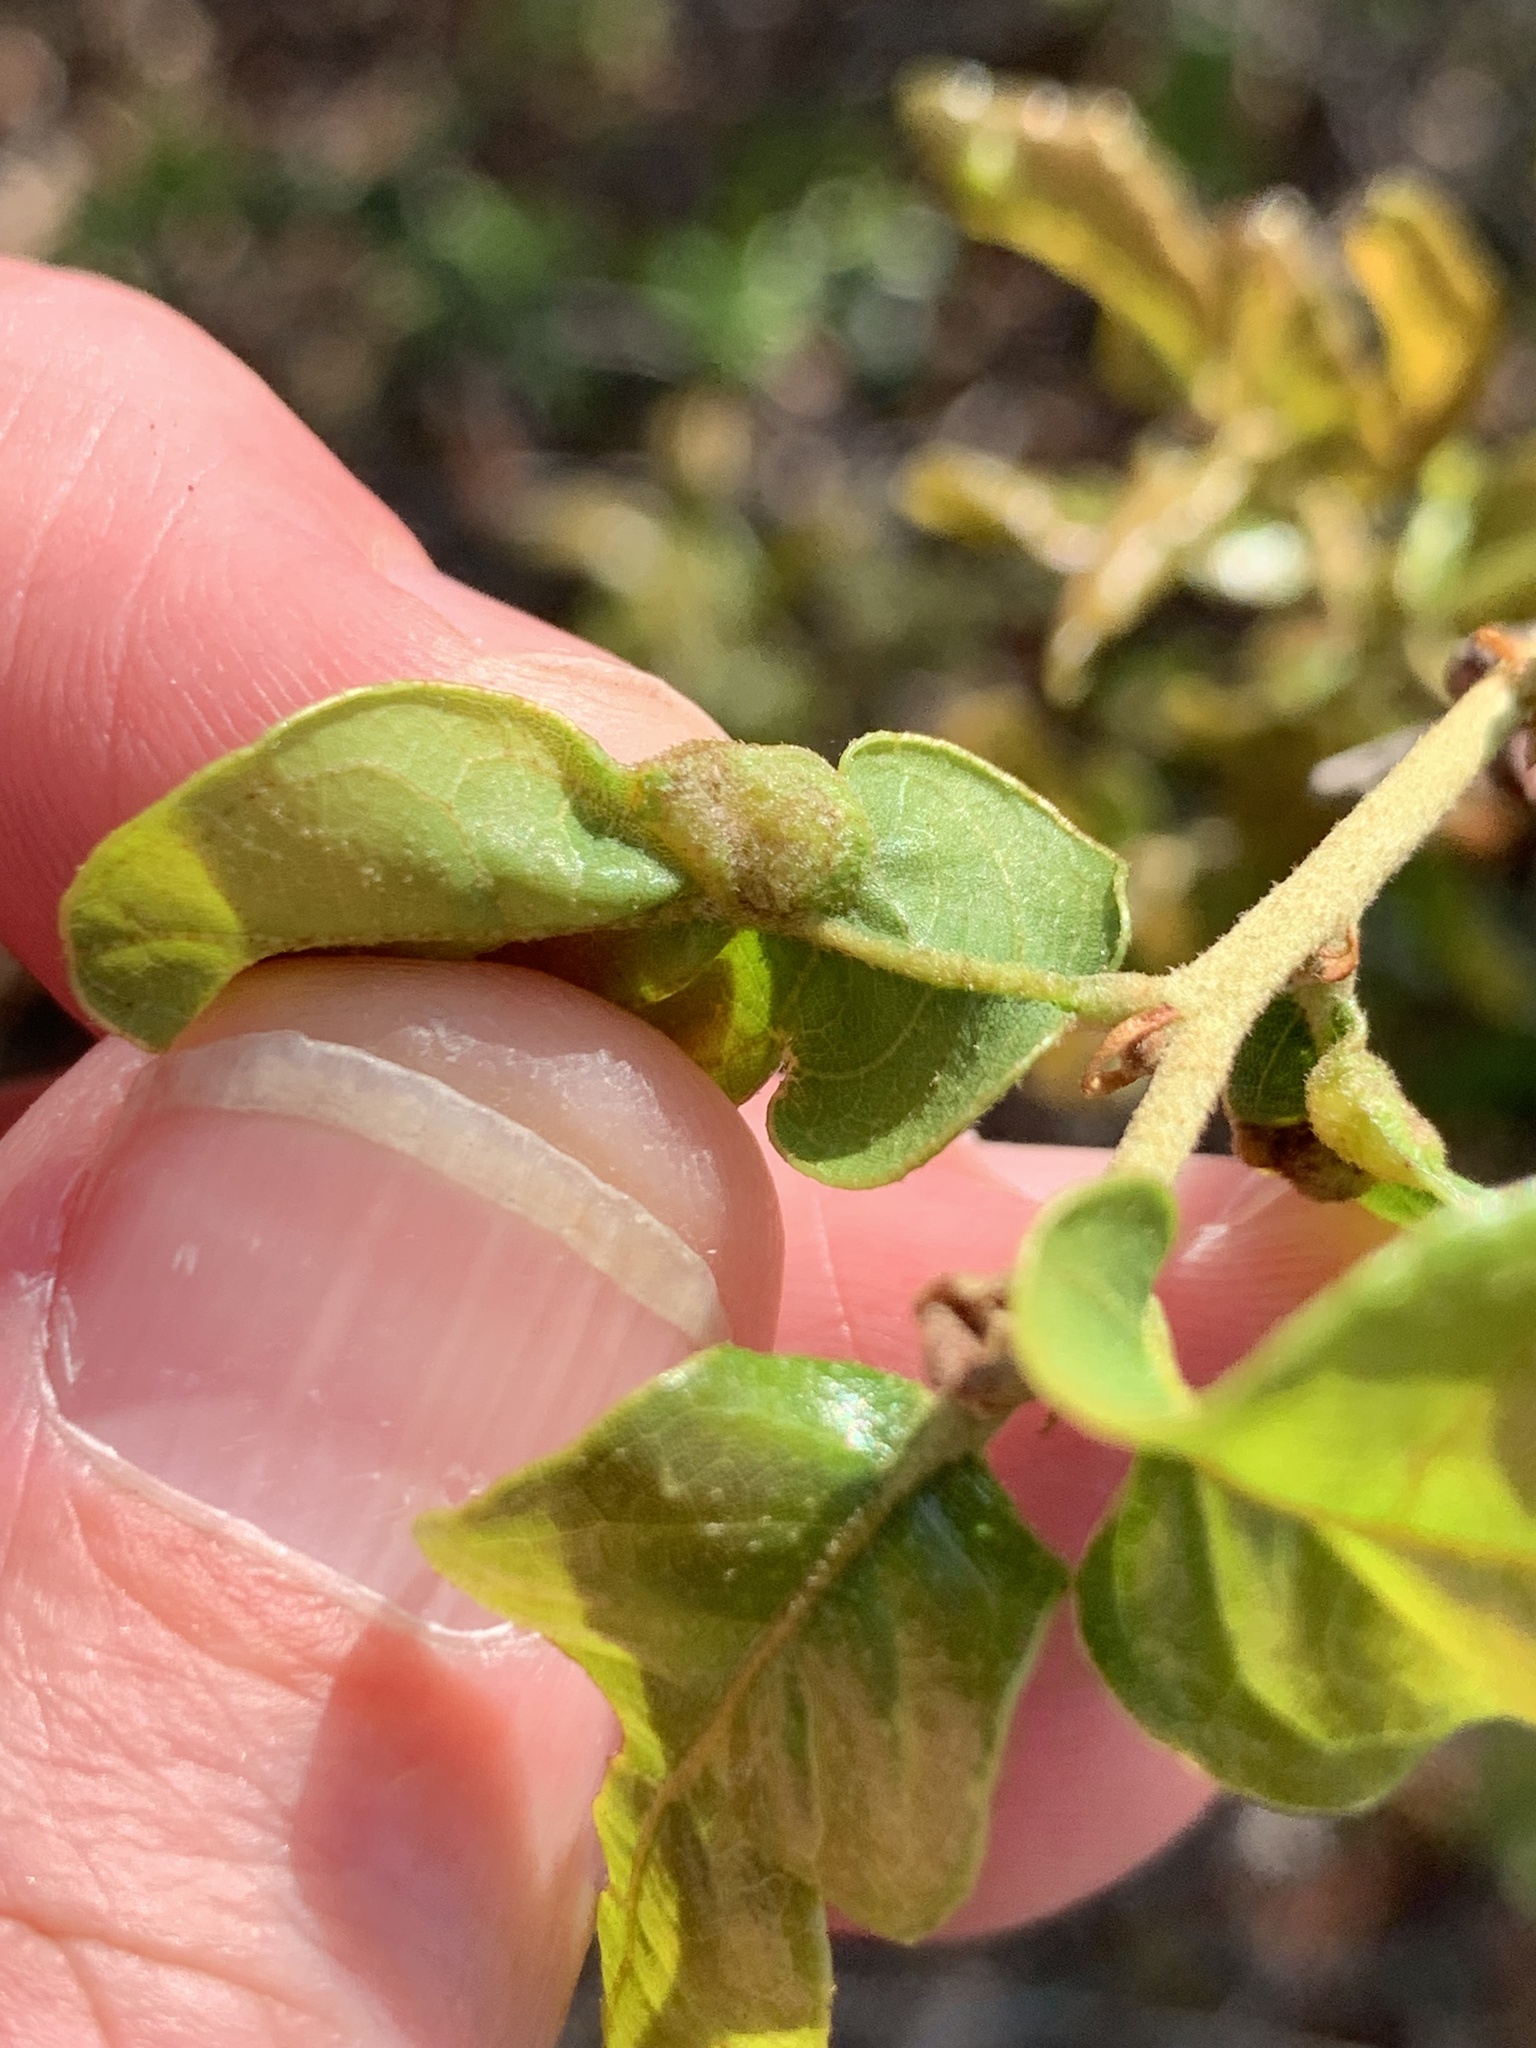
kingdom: Animalia
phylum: Arthropoda
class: Insecta
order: Hymenoptera
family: Cynipidae
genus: Neuroterus
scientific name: Neuroterus quercusirregularis
